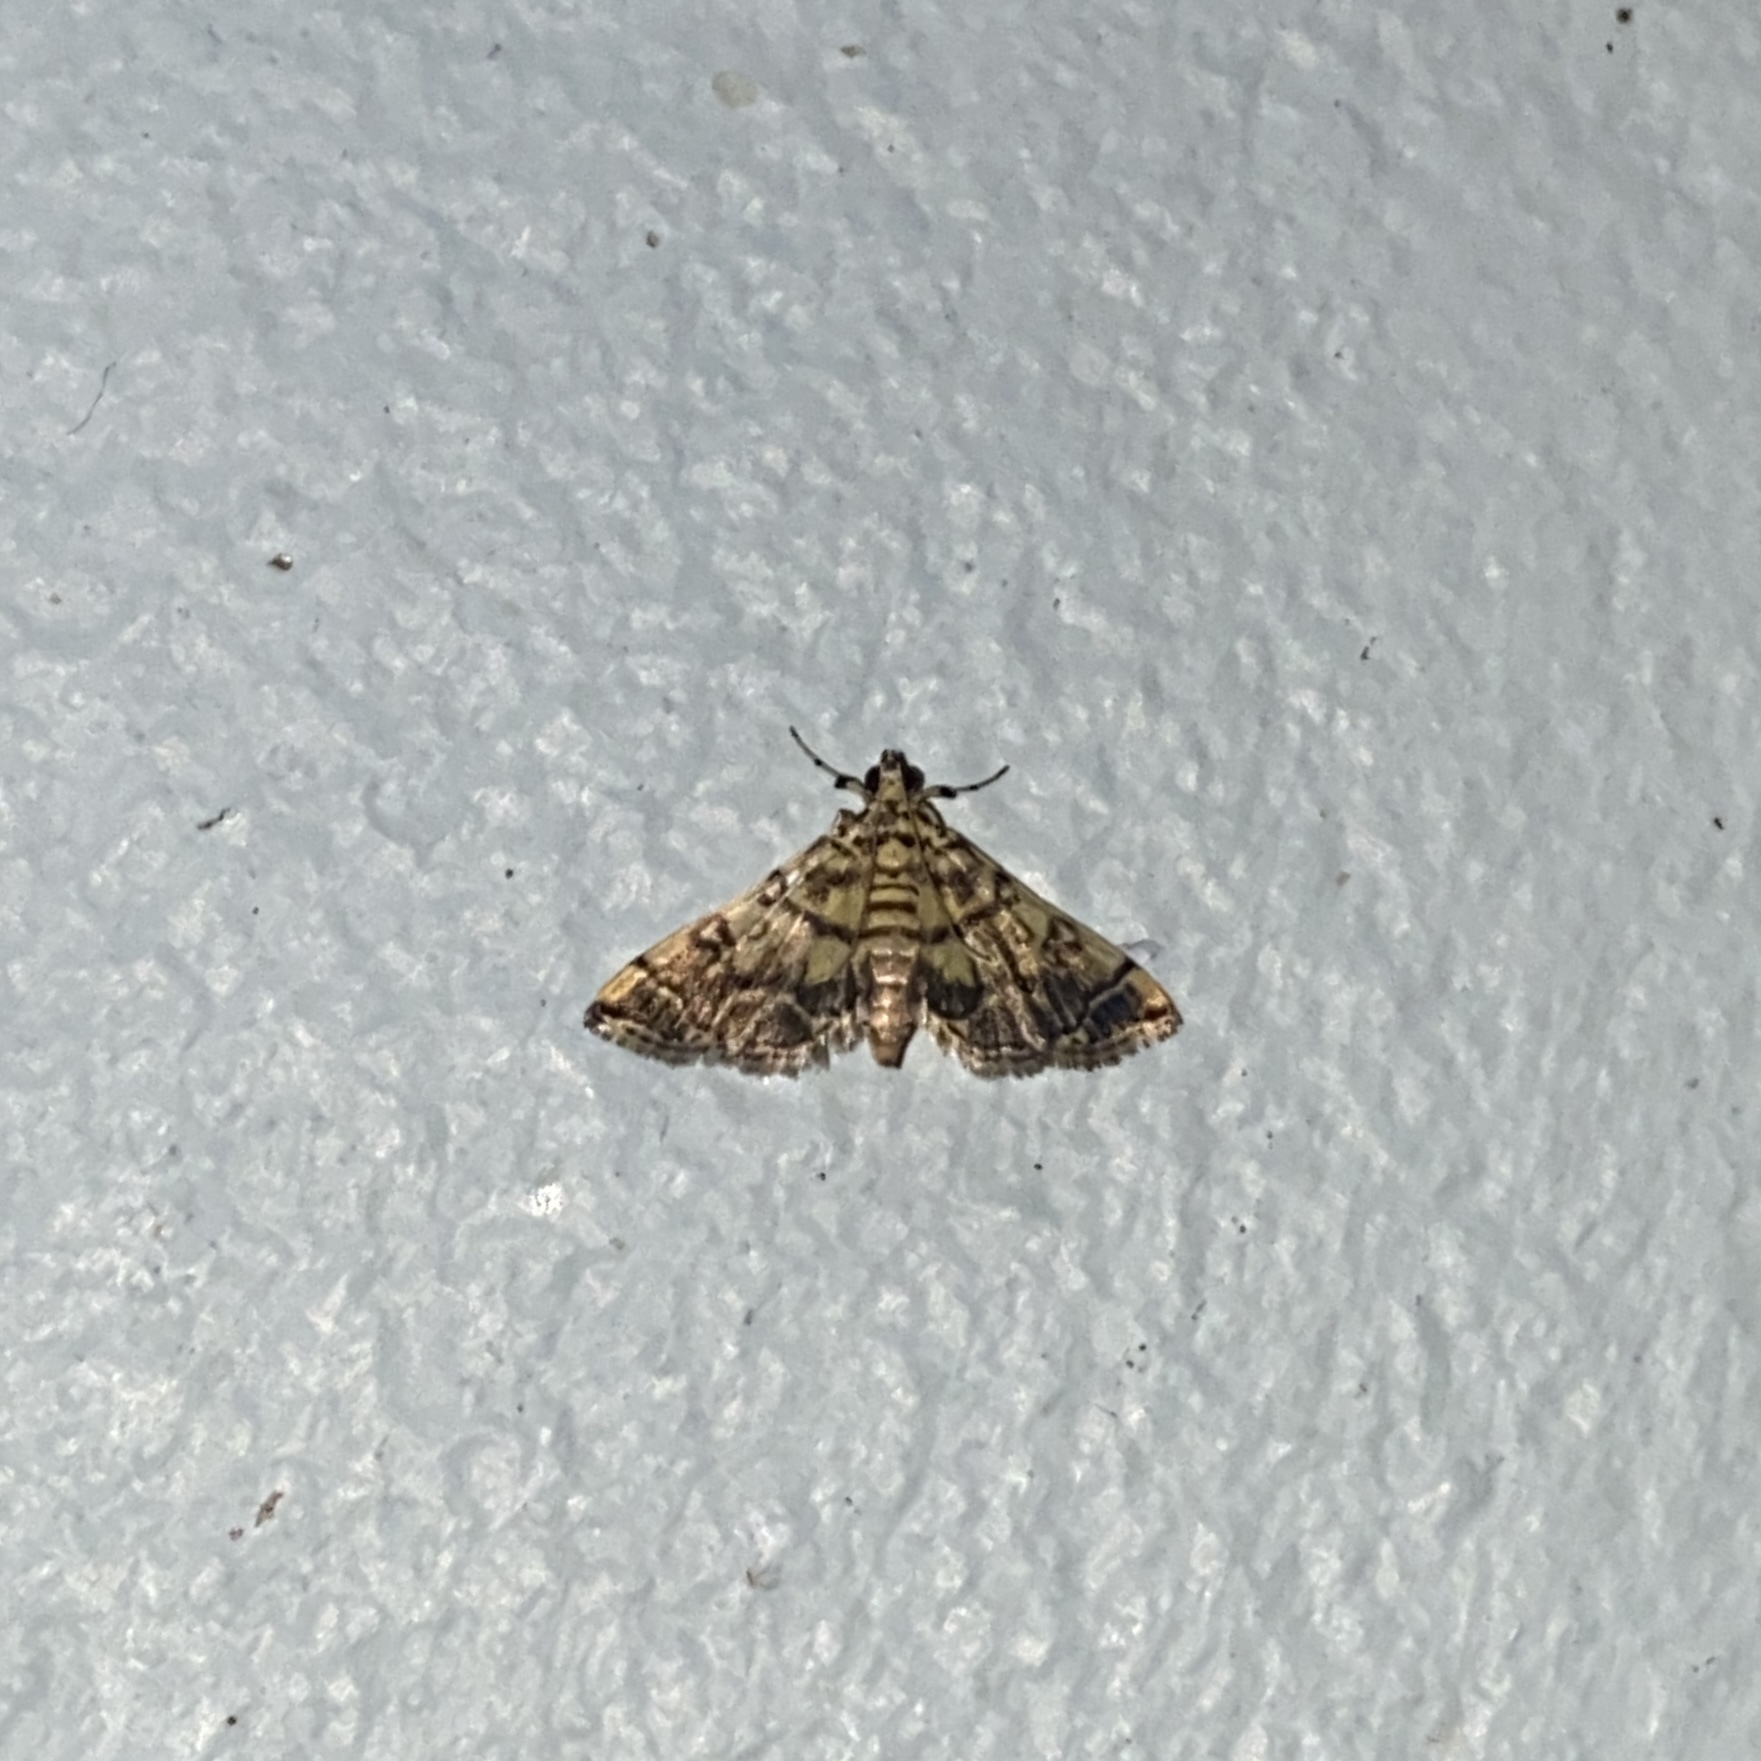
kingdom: Animalia
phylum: Arthropoda
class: Insecta
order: Lepidoptera
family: Crambidae
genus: Apogeshna
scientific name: Apogeshna stenialis
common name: Checkered apogeshna moth
